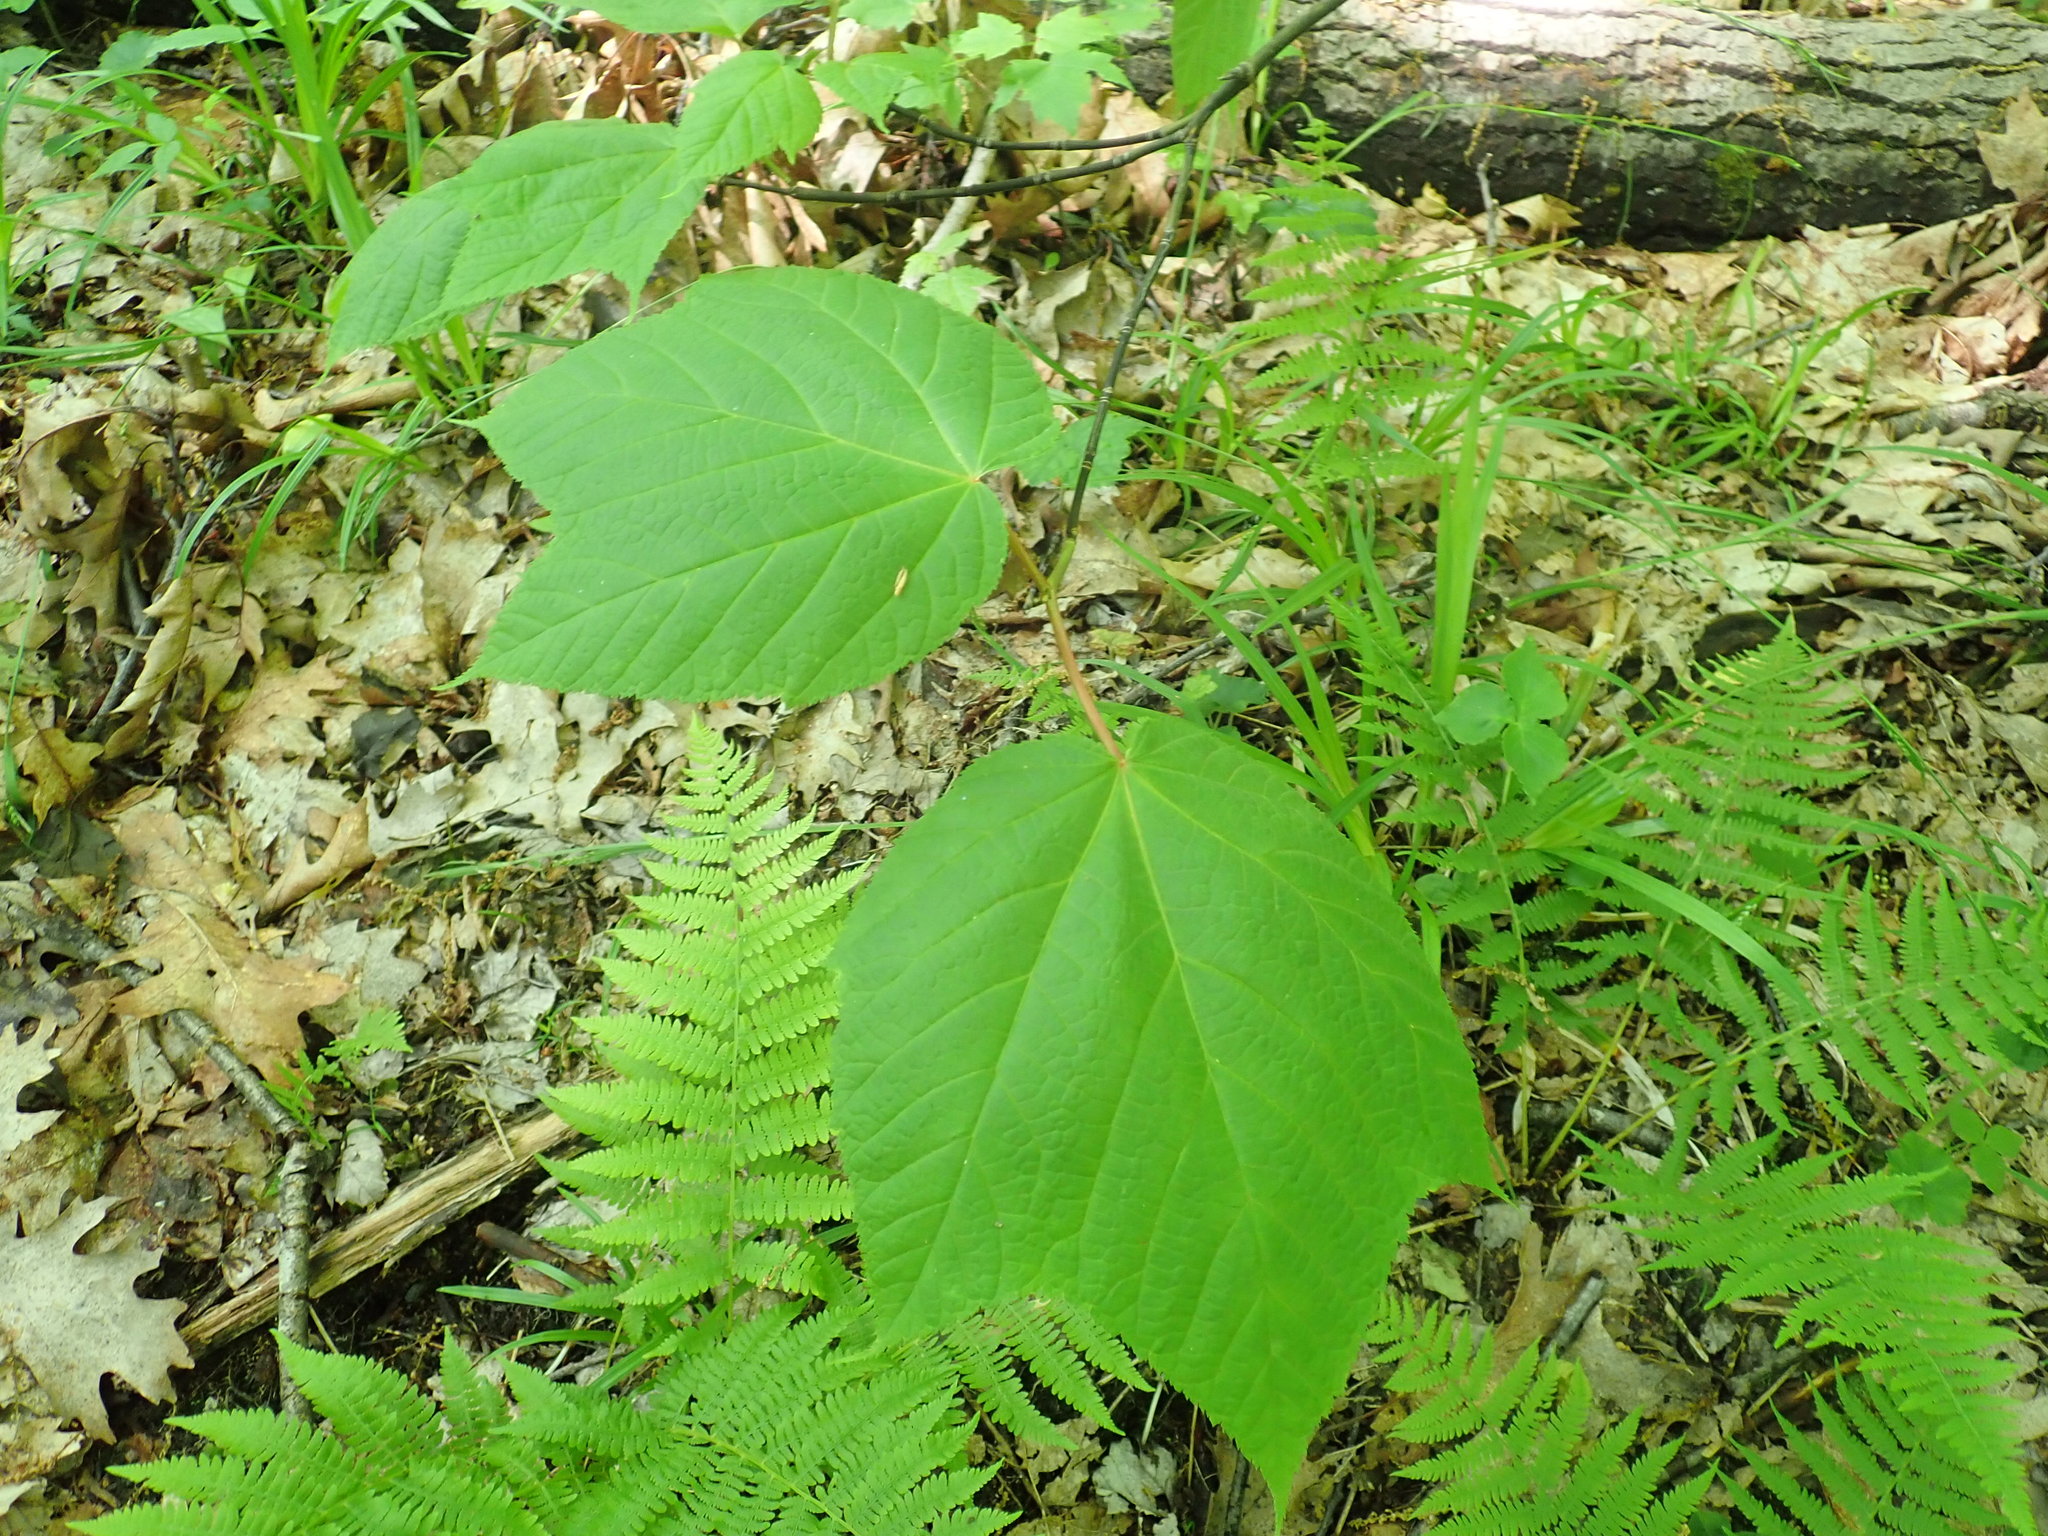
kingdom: Plantae
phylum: Tracheophyta
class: Magnoliopsida
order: Sapindales
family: Sapindaceae
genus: Acer
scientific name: Acer pensylvanicum
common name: Moosewood
